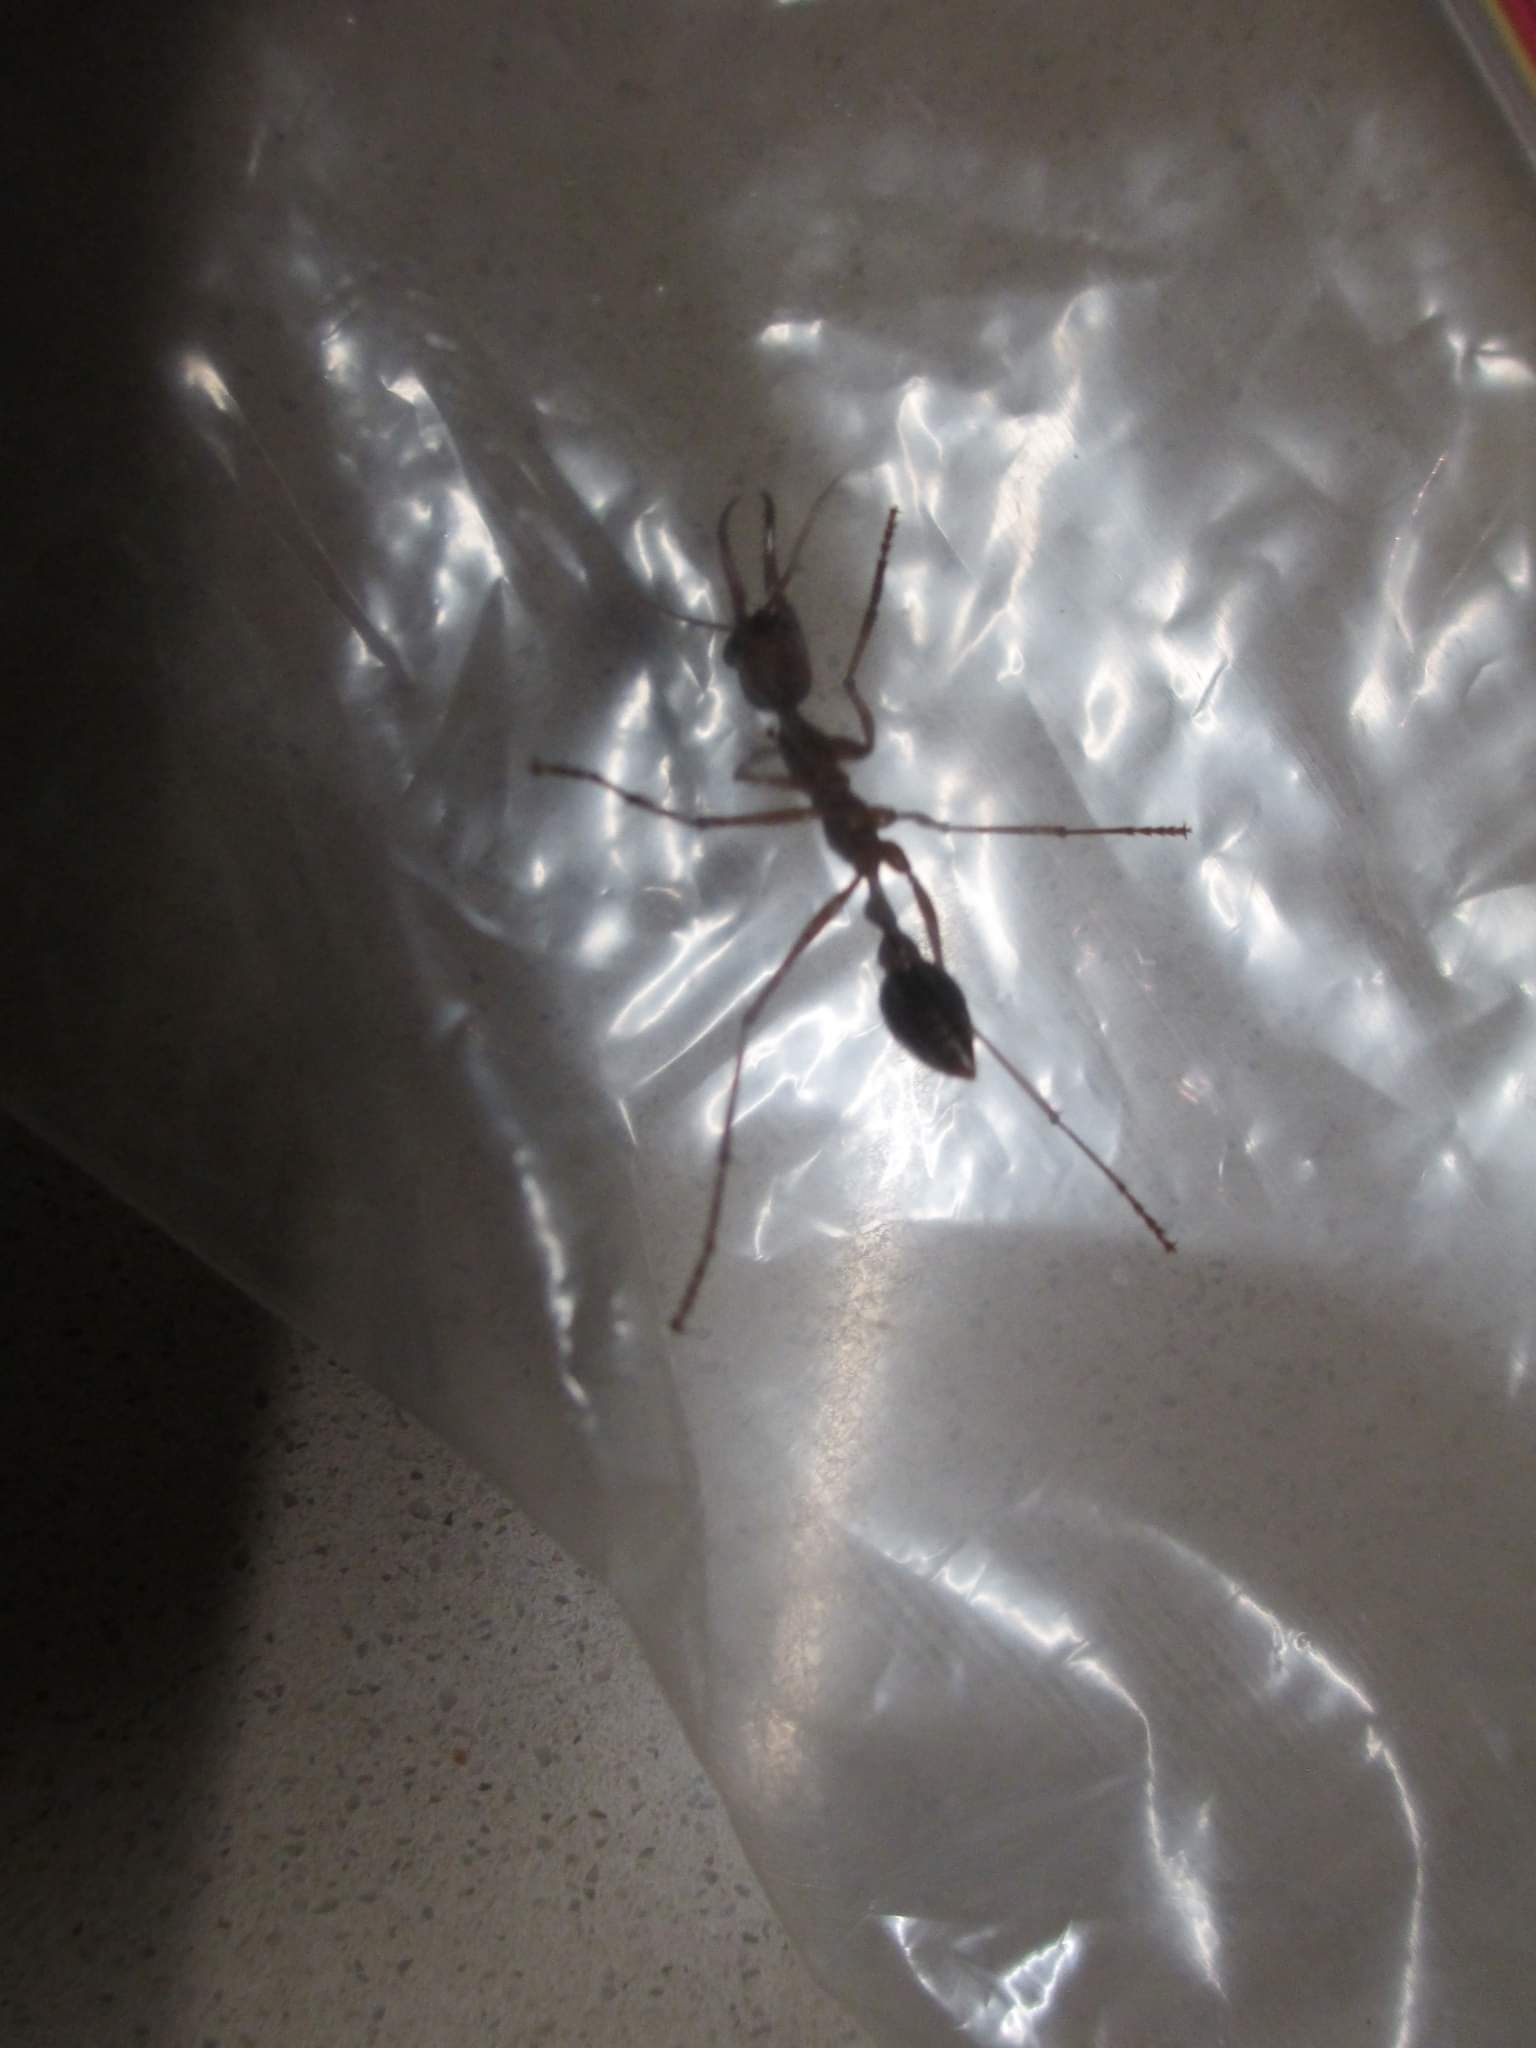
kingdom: Animalia
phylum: Arthropoda
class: Insecta
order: Hymenoptera
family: Formicidae
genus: Myrmecia
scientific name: Myrmecia mjobergi
